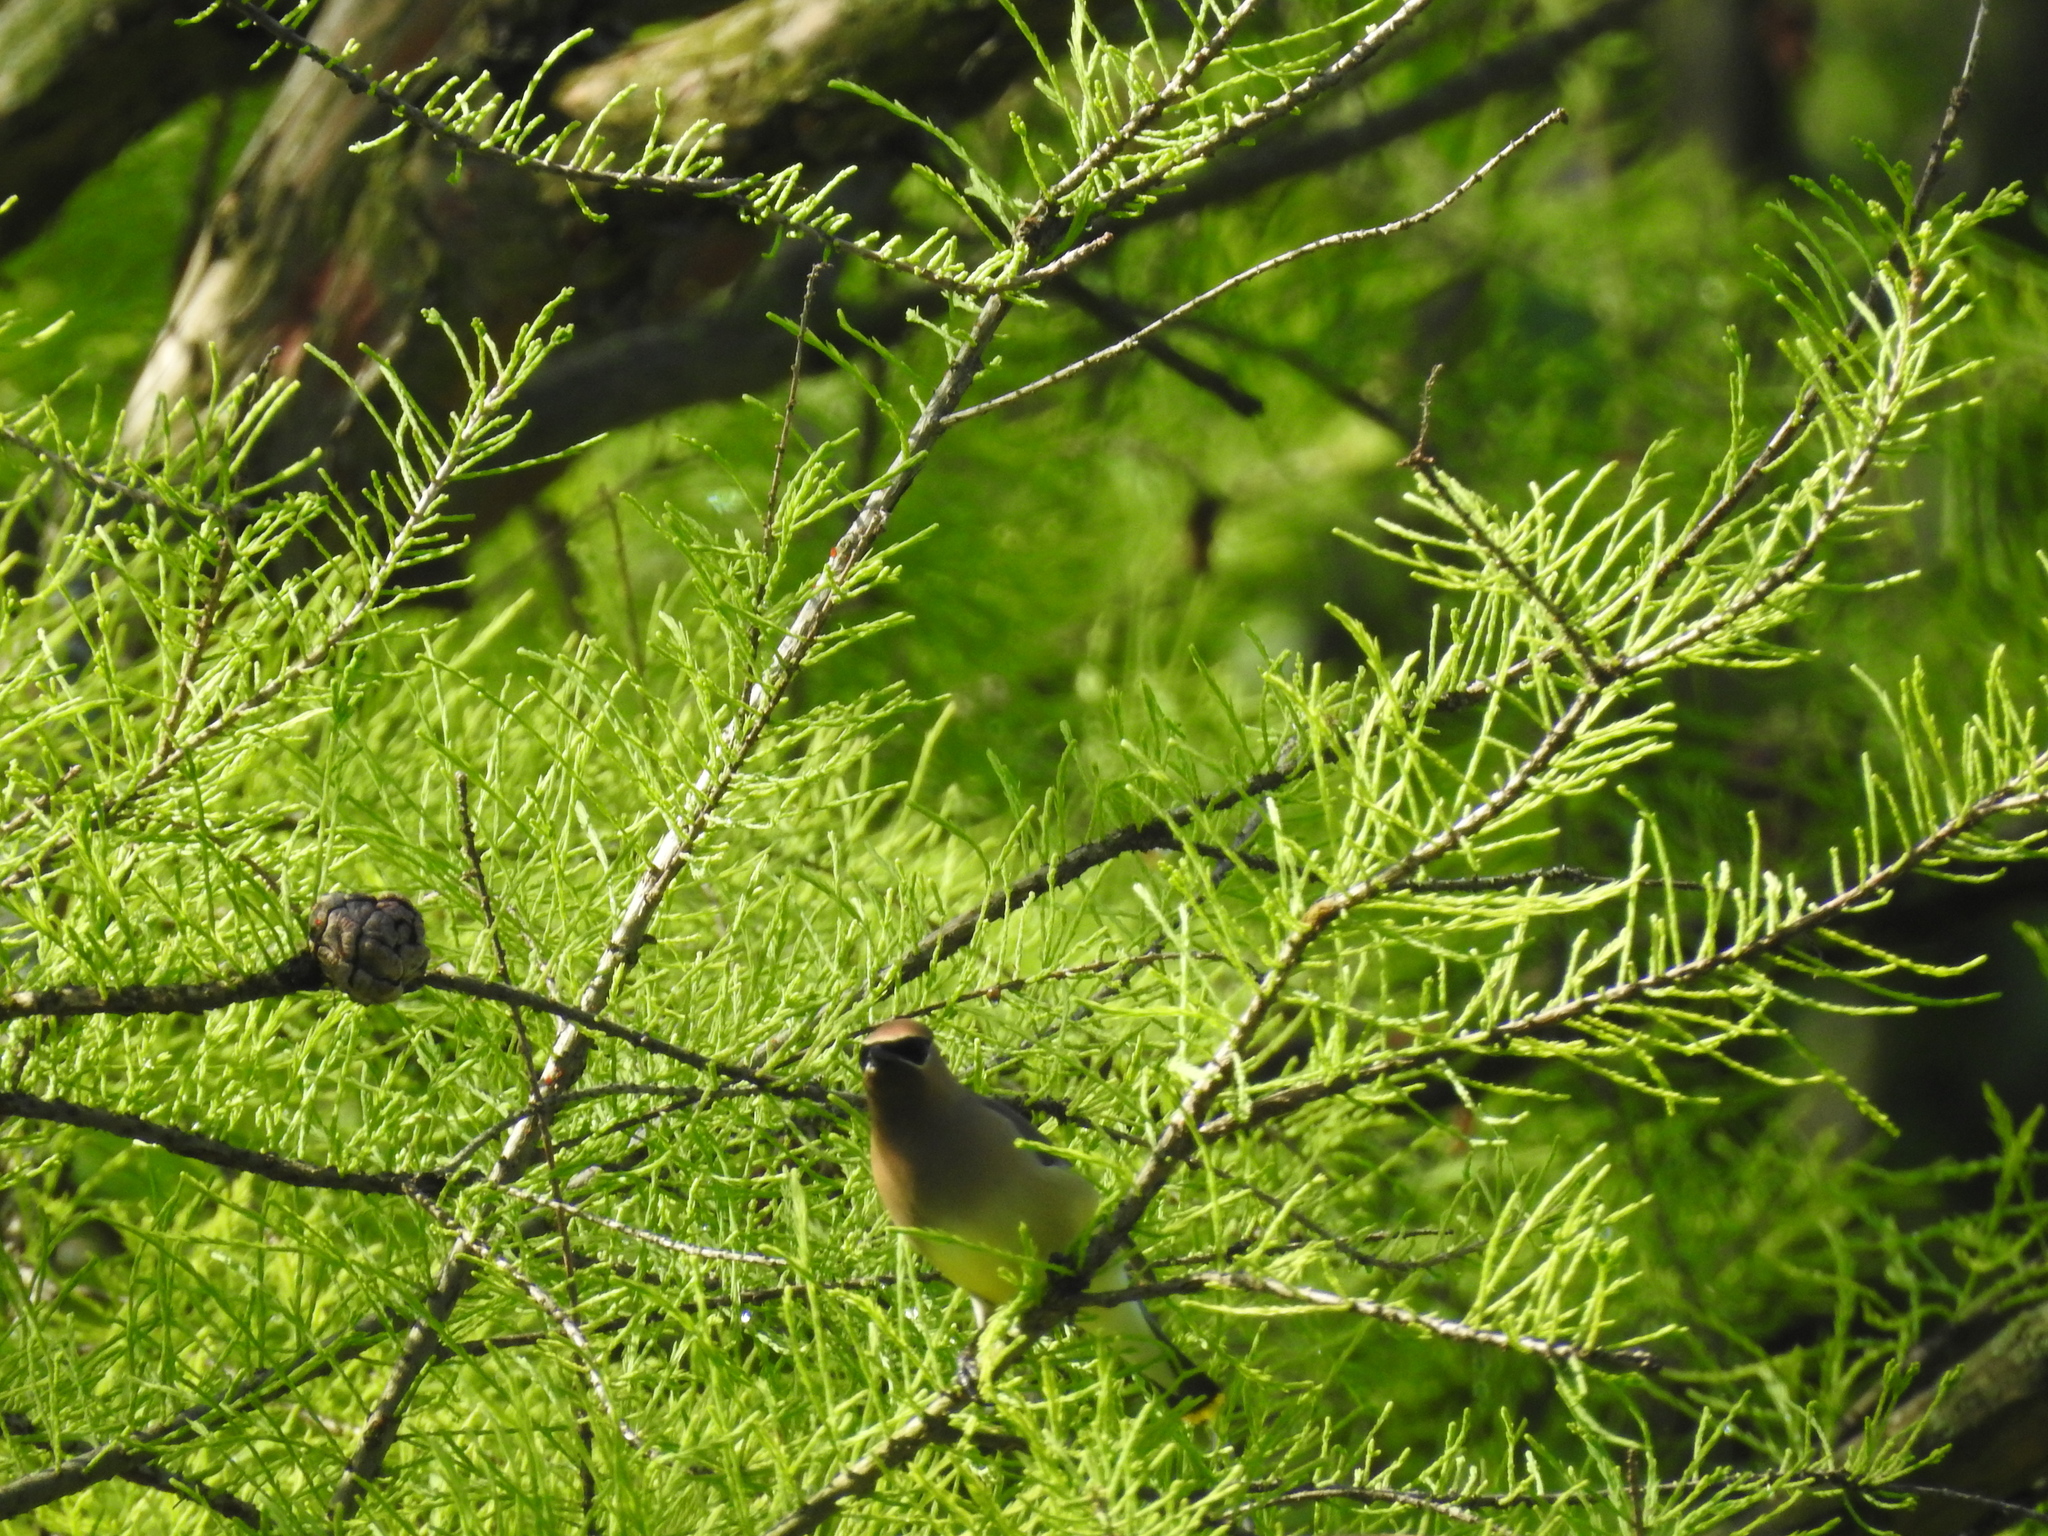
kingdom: Animalia
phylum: Chordata
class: Aves
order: Passeriformes
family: Bombycillidae
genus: Bombycilla
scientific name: Bombycilla cedrorum
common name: Cedar waxwing
